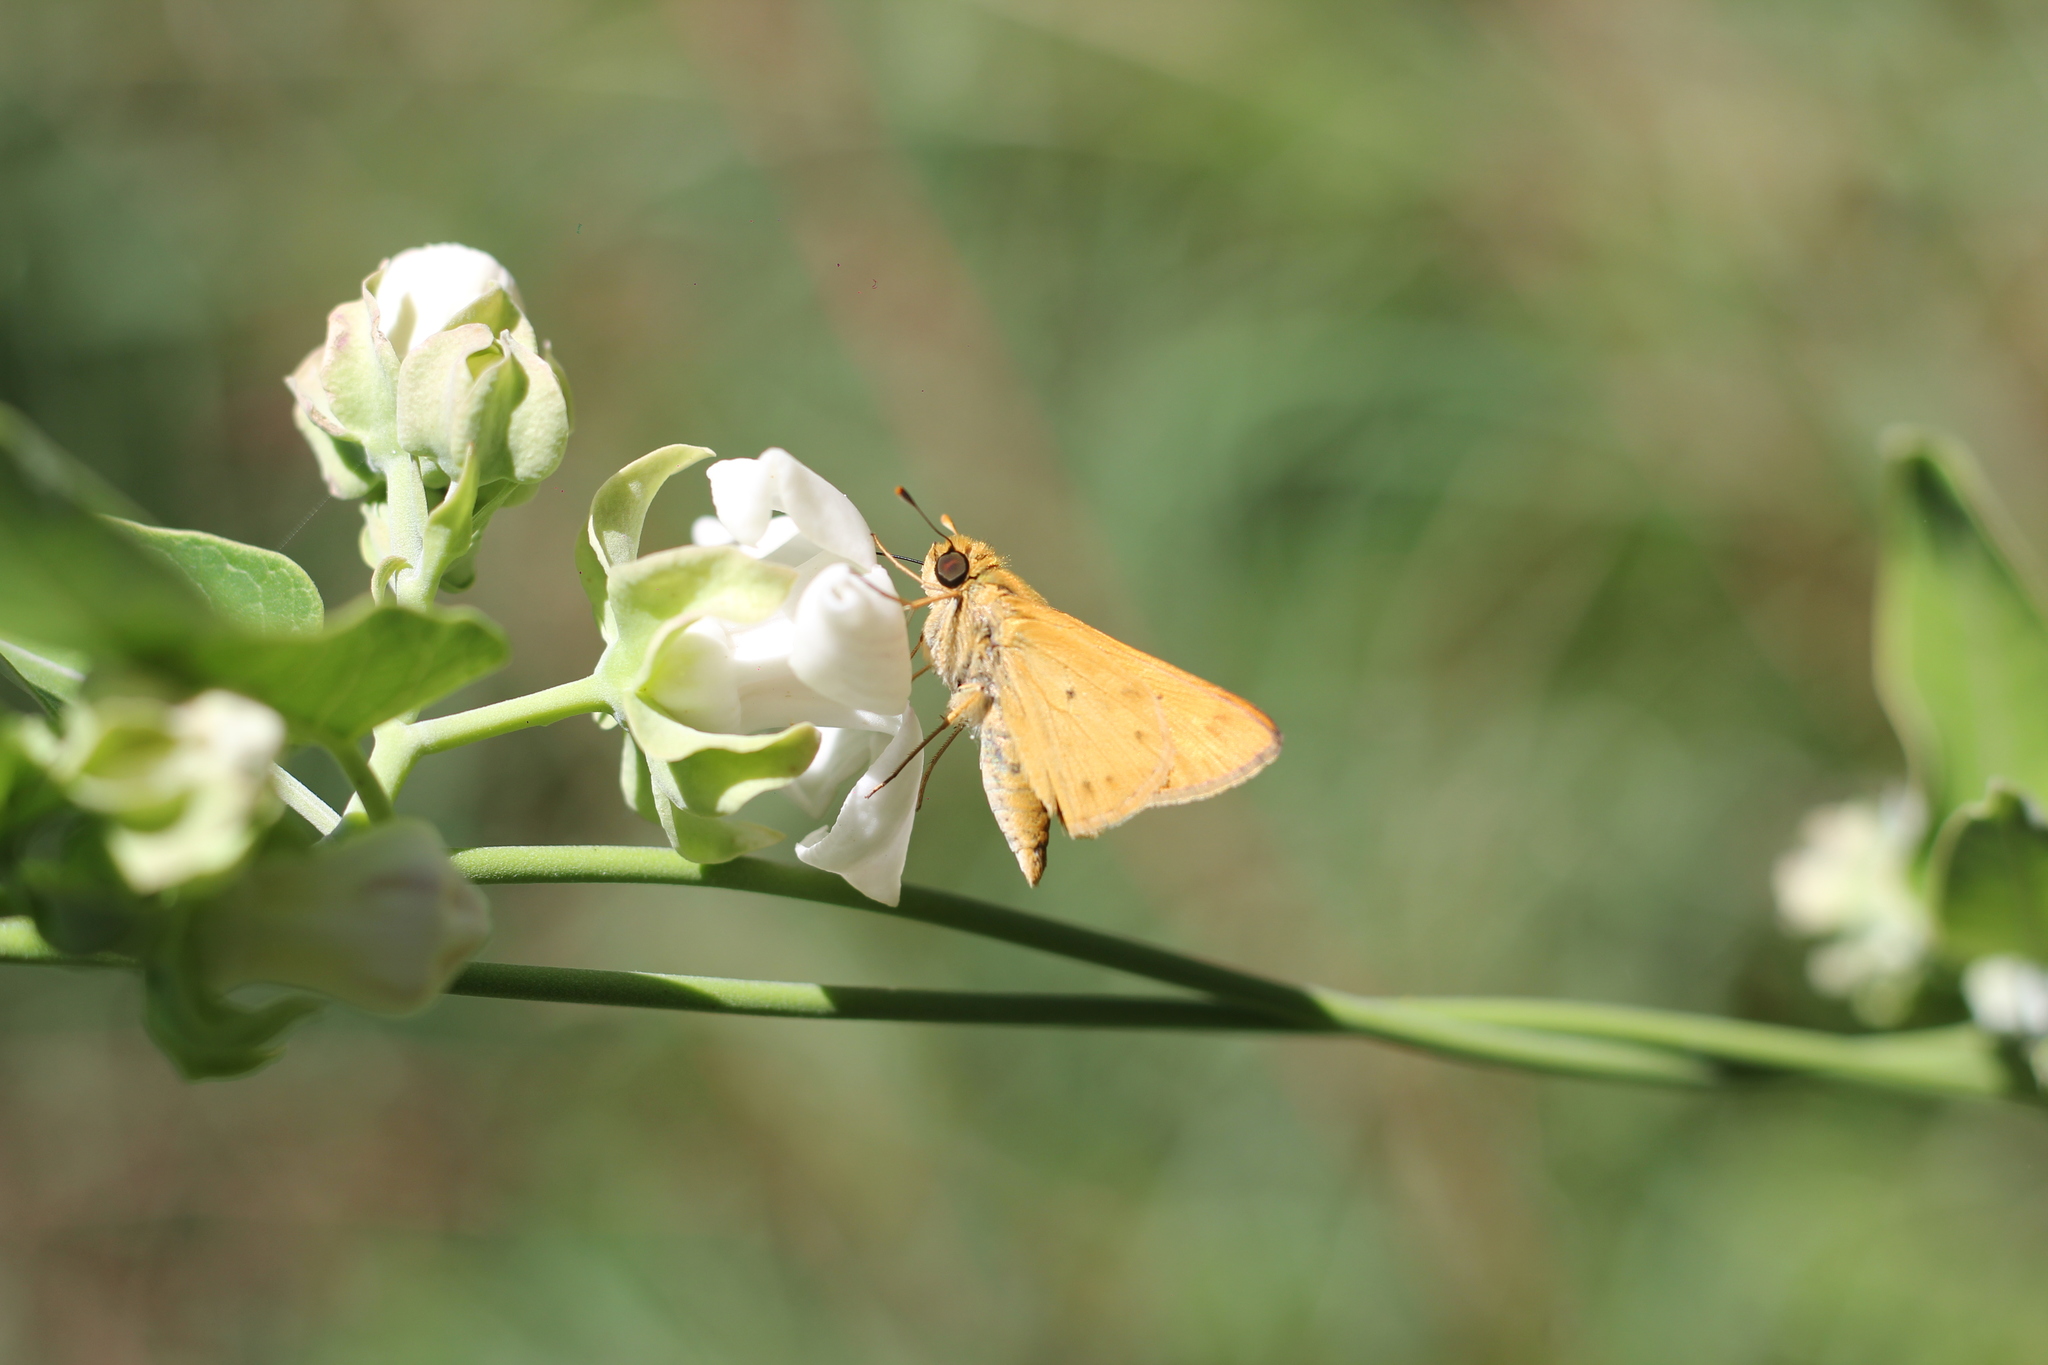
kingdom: Animalia
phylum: Arthropoda
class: Insecta
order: Lepidoptera
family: Hesperiidae
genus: Hylephila
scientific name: Hylephila phyleus
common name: Fiery skipper
